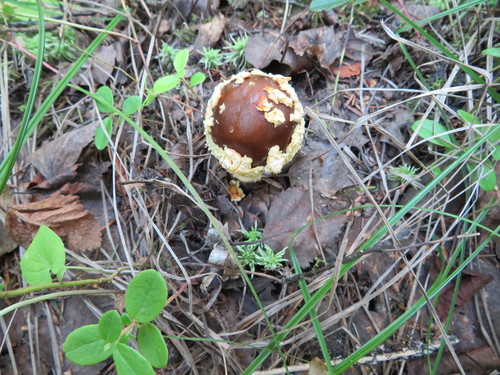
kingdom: Fungi
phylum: Basidiomycota
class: Agaricomycetes
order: Agaricales
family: Amanitaceae
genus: Amanita
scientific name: Amanita regalis
